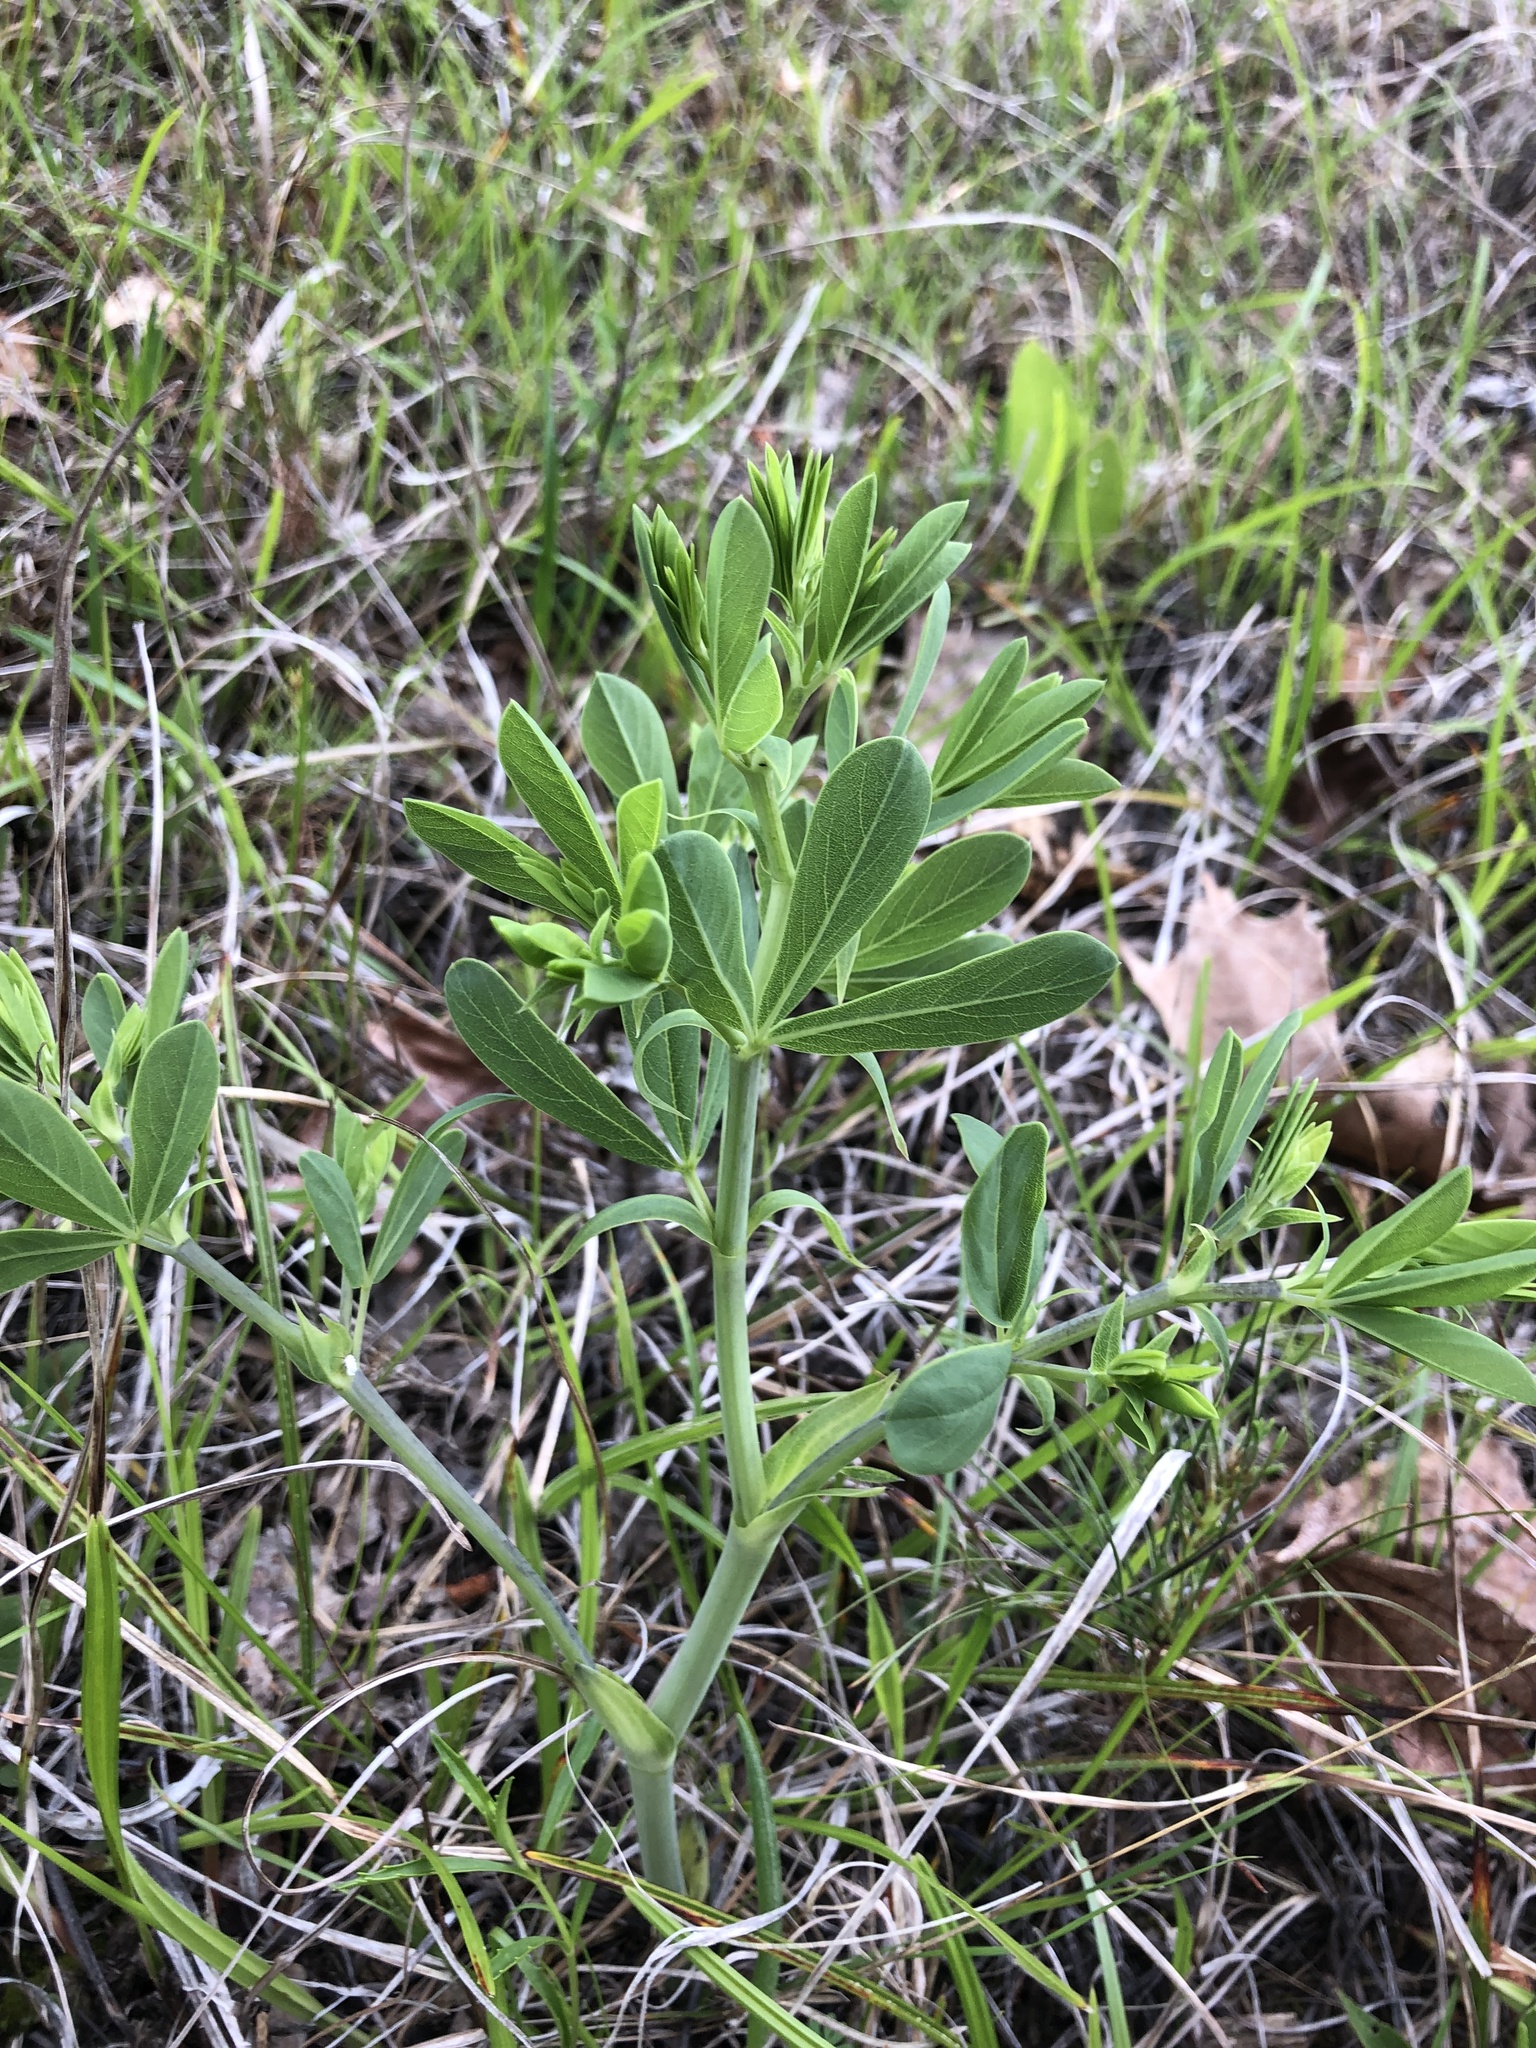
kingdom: Plantae
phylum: Tracheophyta
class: Magnoliopsida
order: Fabales
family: Fabaceae
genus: Baptisia
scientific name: Baptisia aberrans
